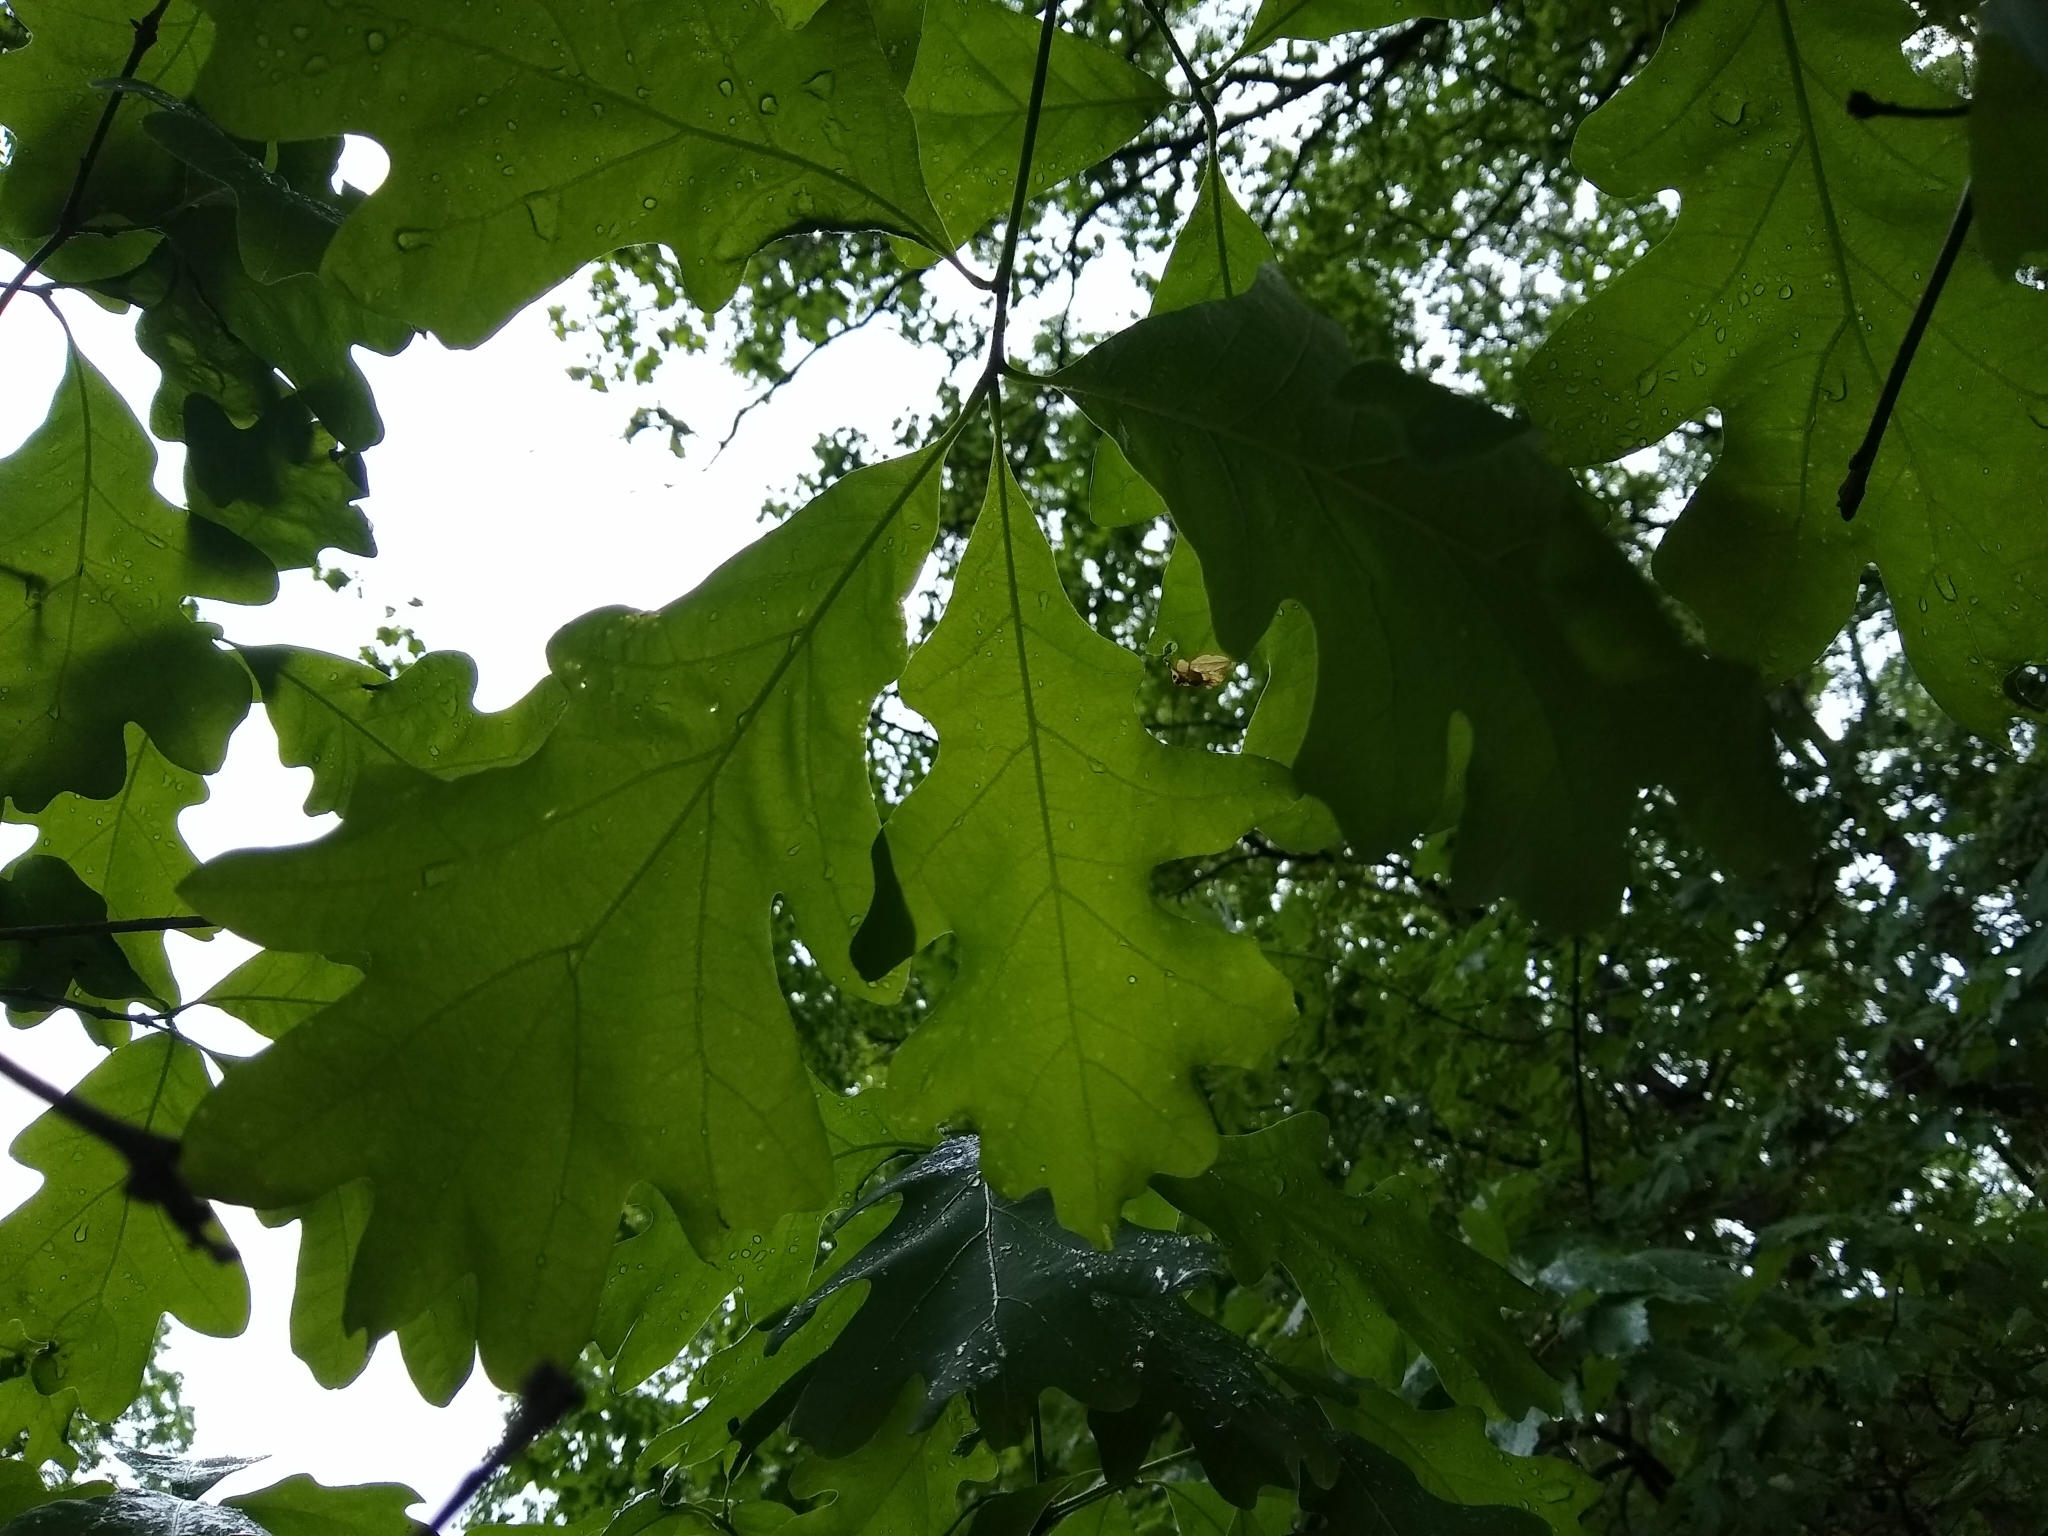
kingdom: Plantae
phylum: Tracheophyta
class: Magnoliopsida
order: Fagales
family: Fagaceae
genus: Quercus
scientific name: Quercus alba
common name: White oak
